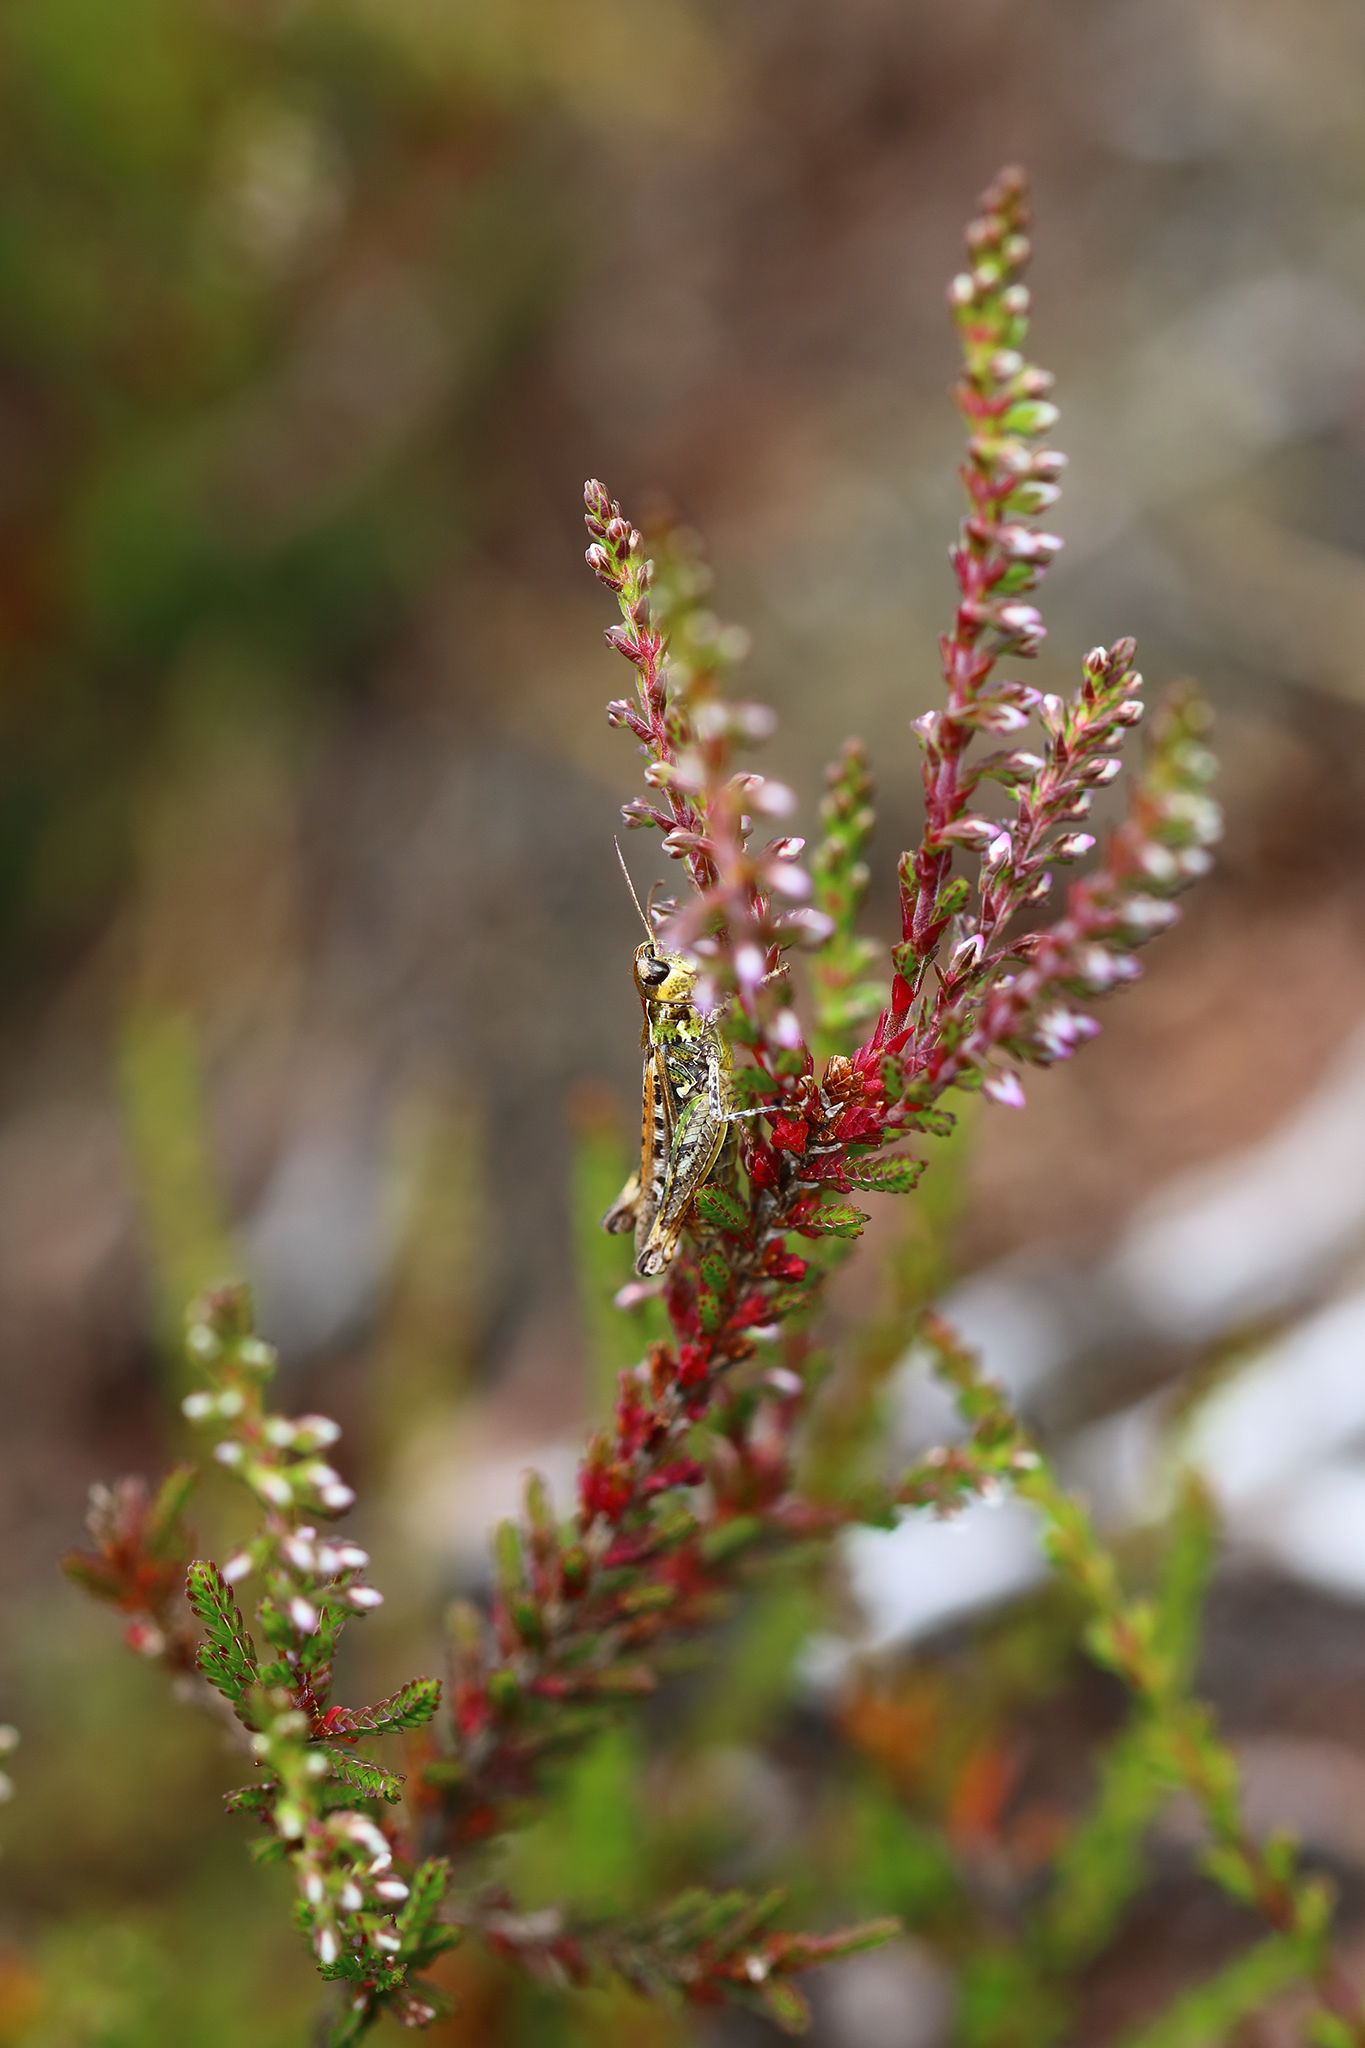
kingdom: Plantae
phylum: Tracheophyta
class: Magnoliopsida
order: Ericales
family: Ericaceae
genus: Calluna
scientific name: Calluna vulgaris
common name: Heather
